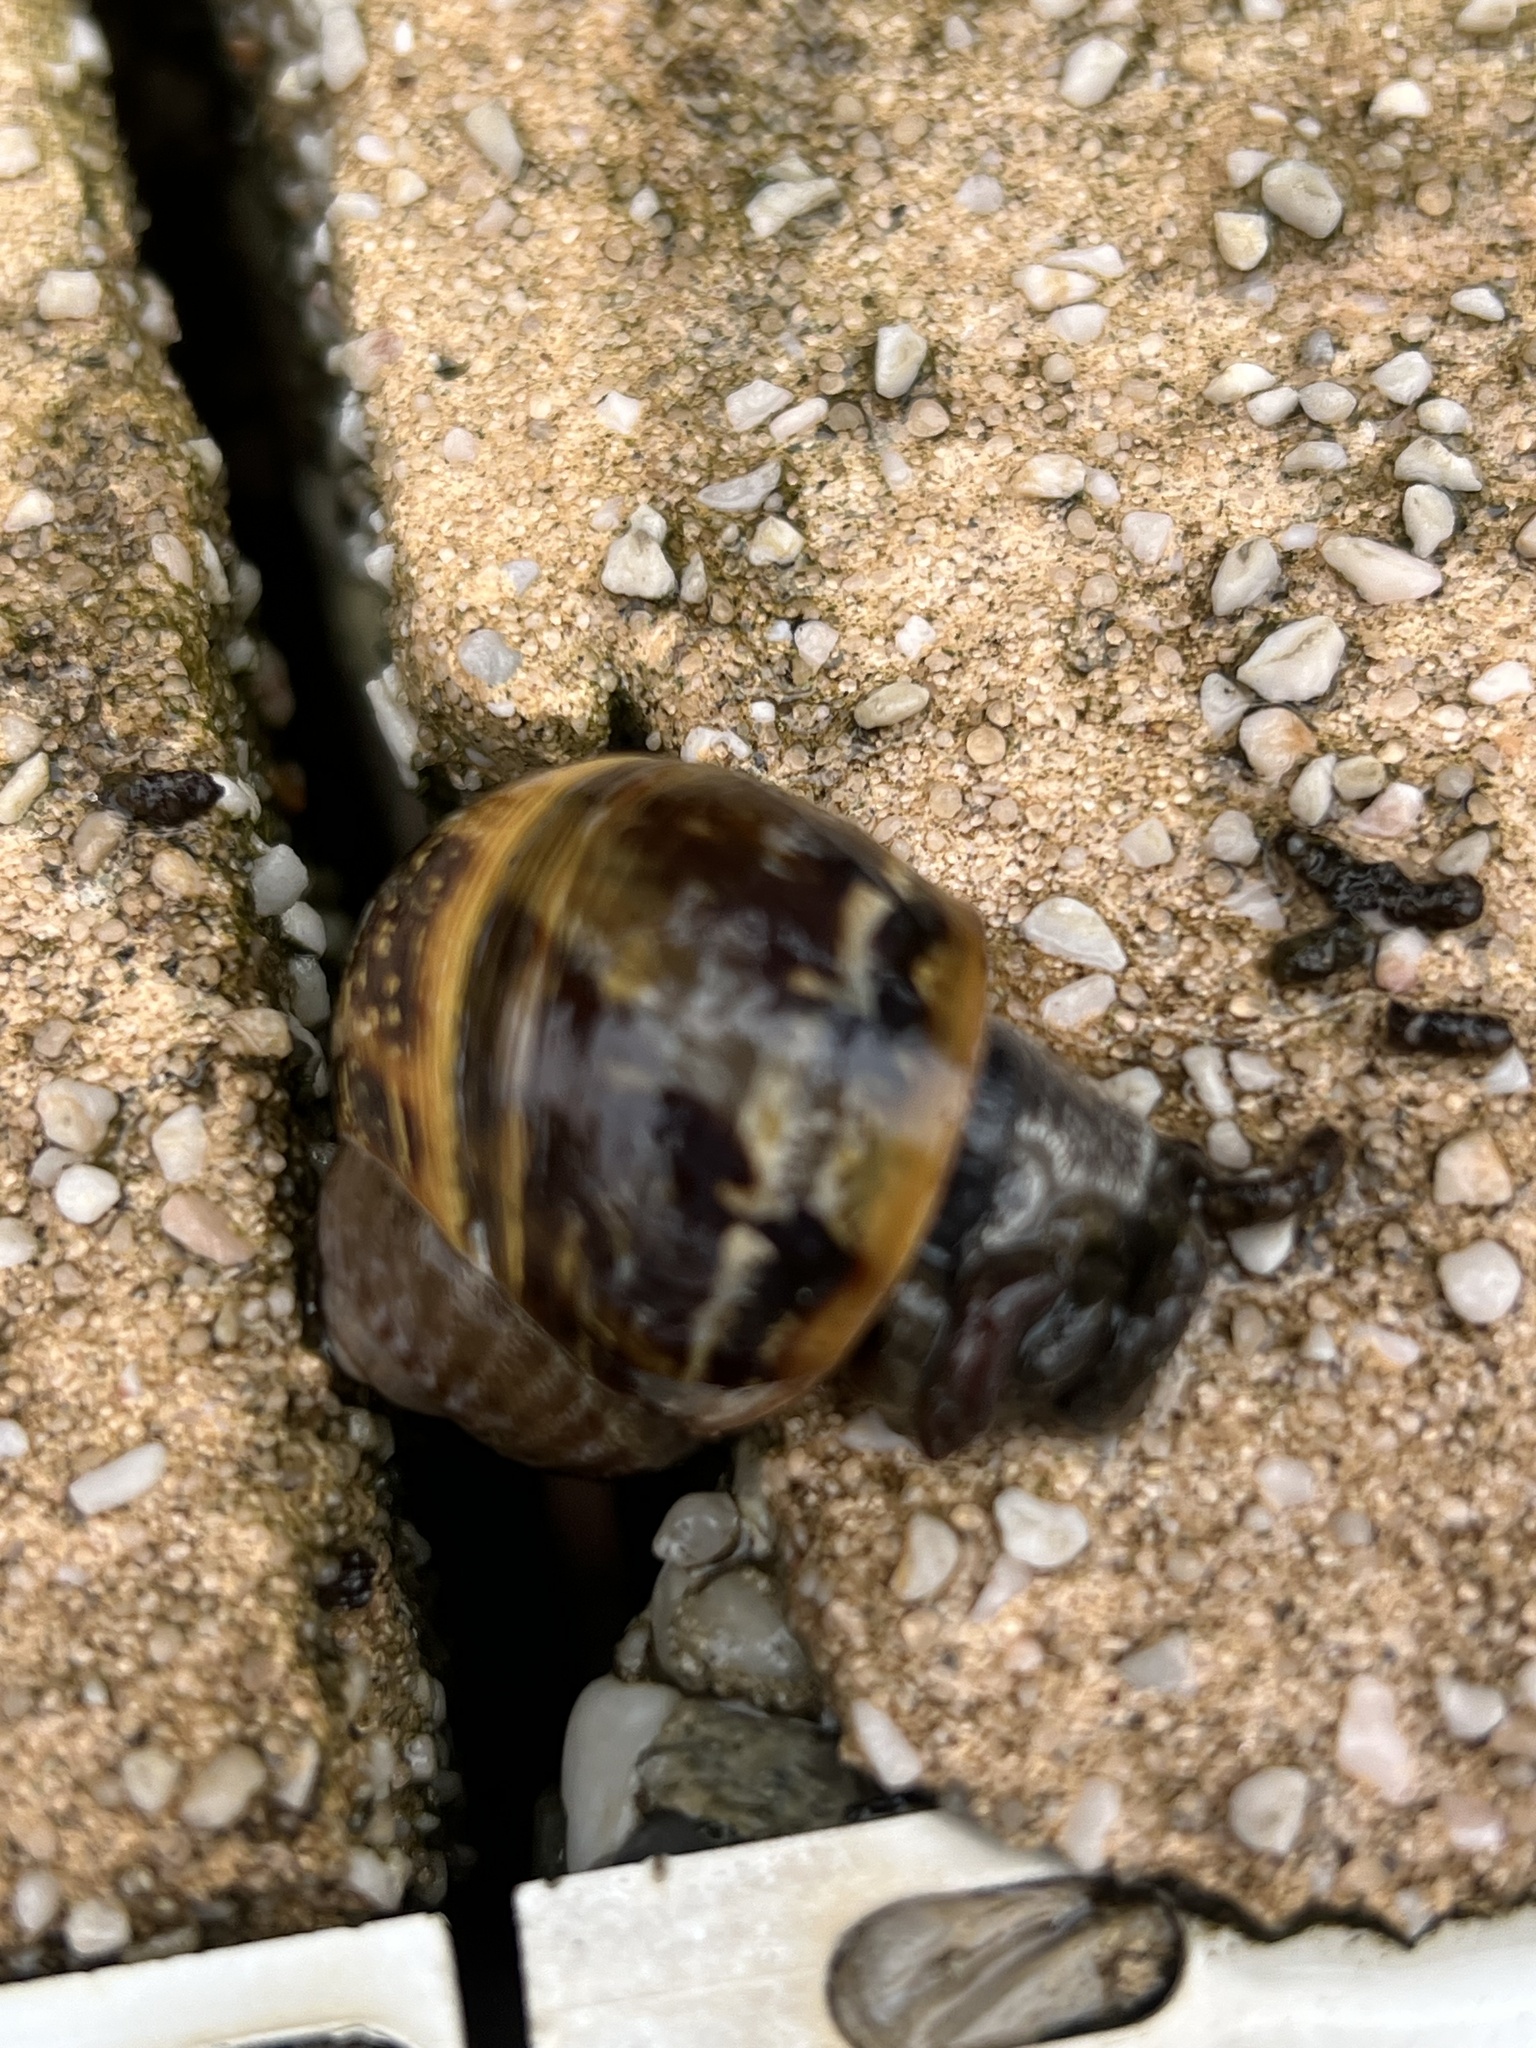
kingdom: Animalia
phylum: Mollusca
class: Gastropoda
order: Stylommatophora
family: Helicidae
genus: Cornu
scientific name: Cornu aspersum
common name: Brown garden snail
